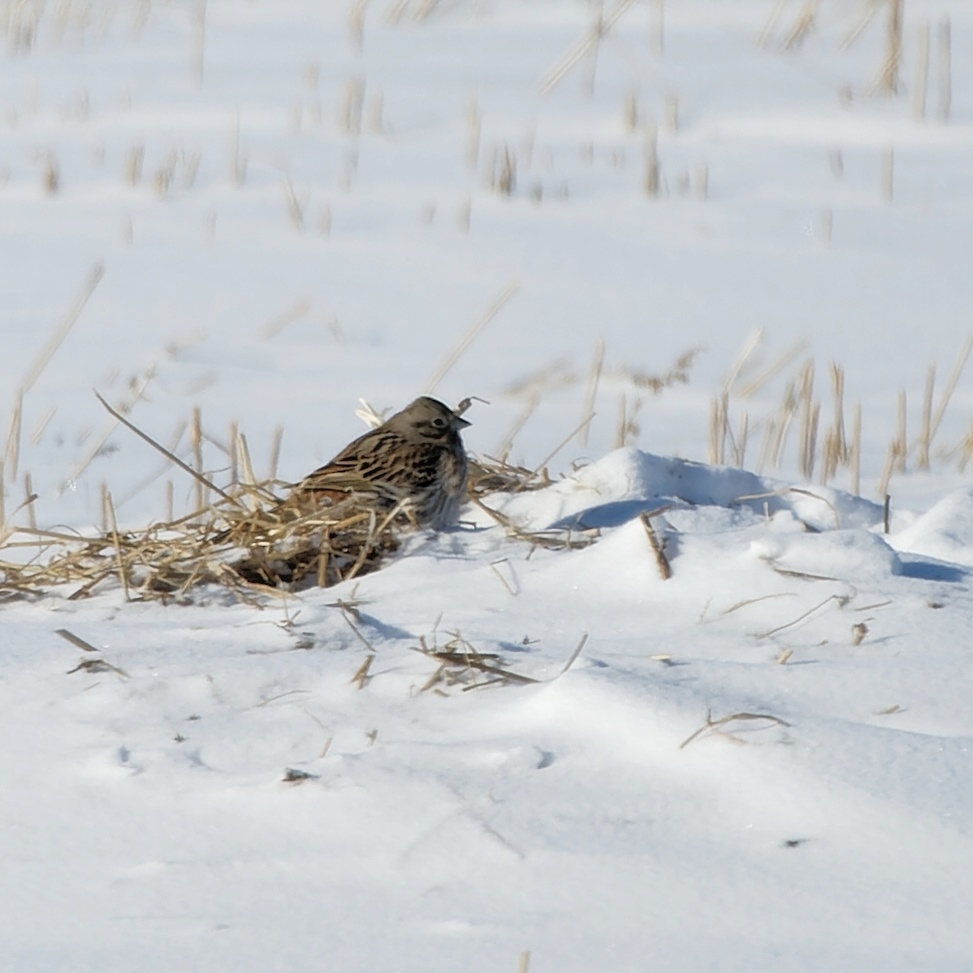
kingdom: Animalia
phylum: Chordata
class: Aves
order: Passeriformes
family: Emberizidae
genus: Emberiza
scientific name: Emberiza leucocephalos
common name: Pine bunting
